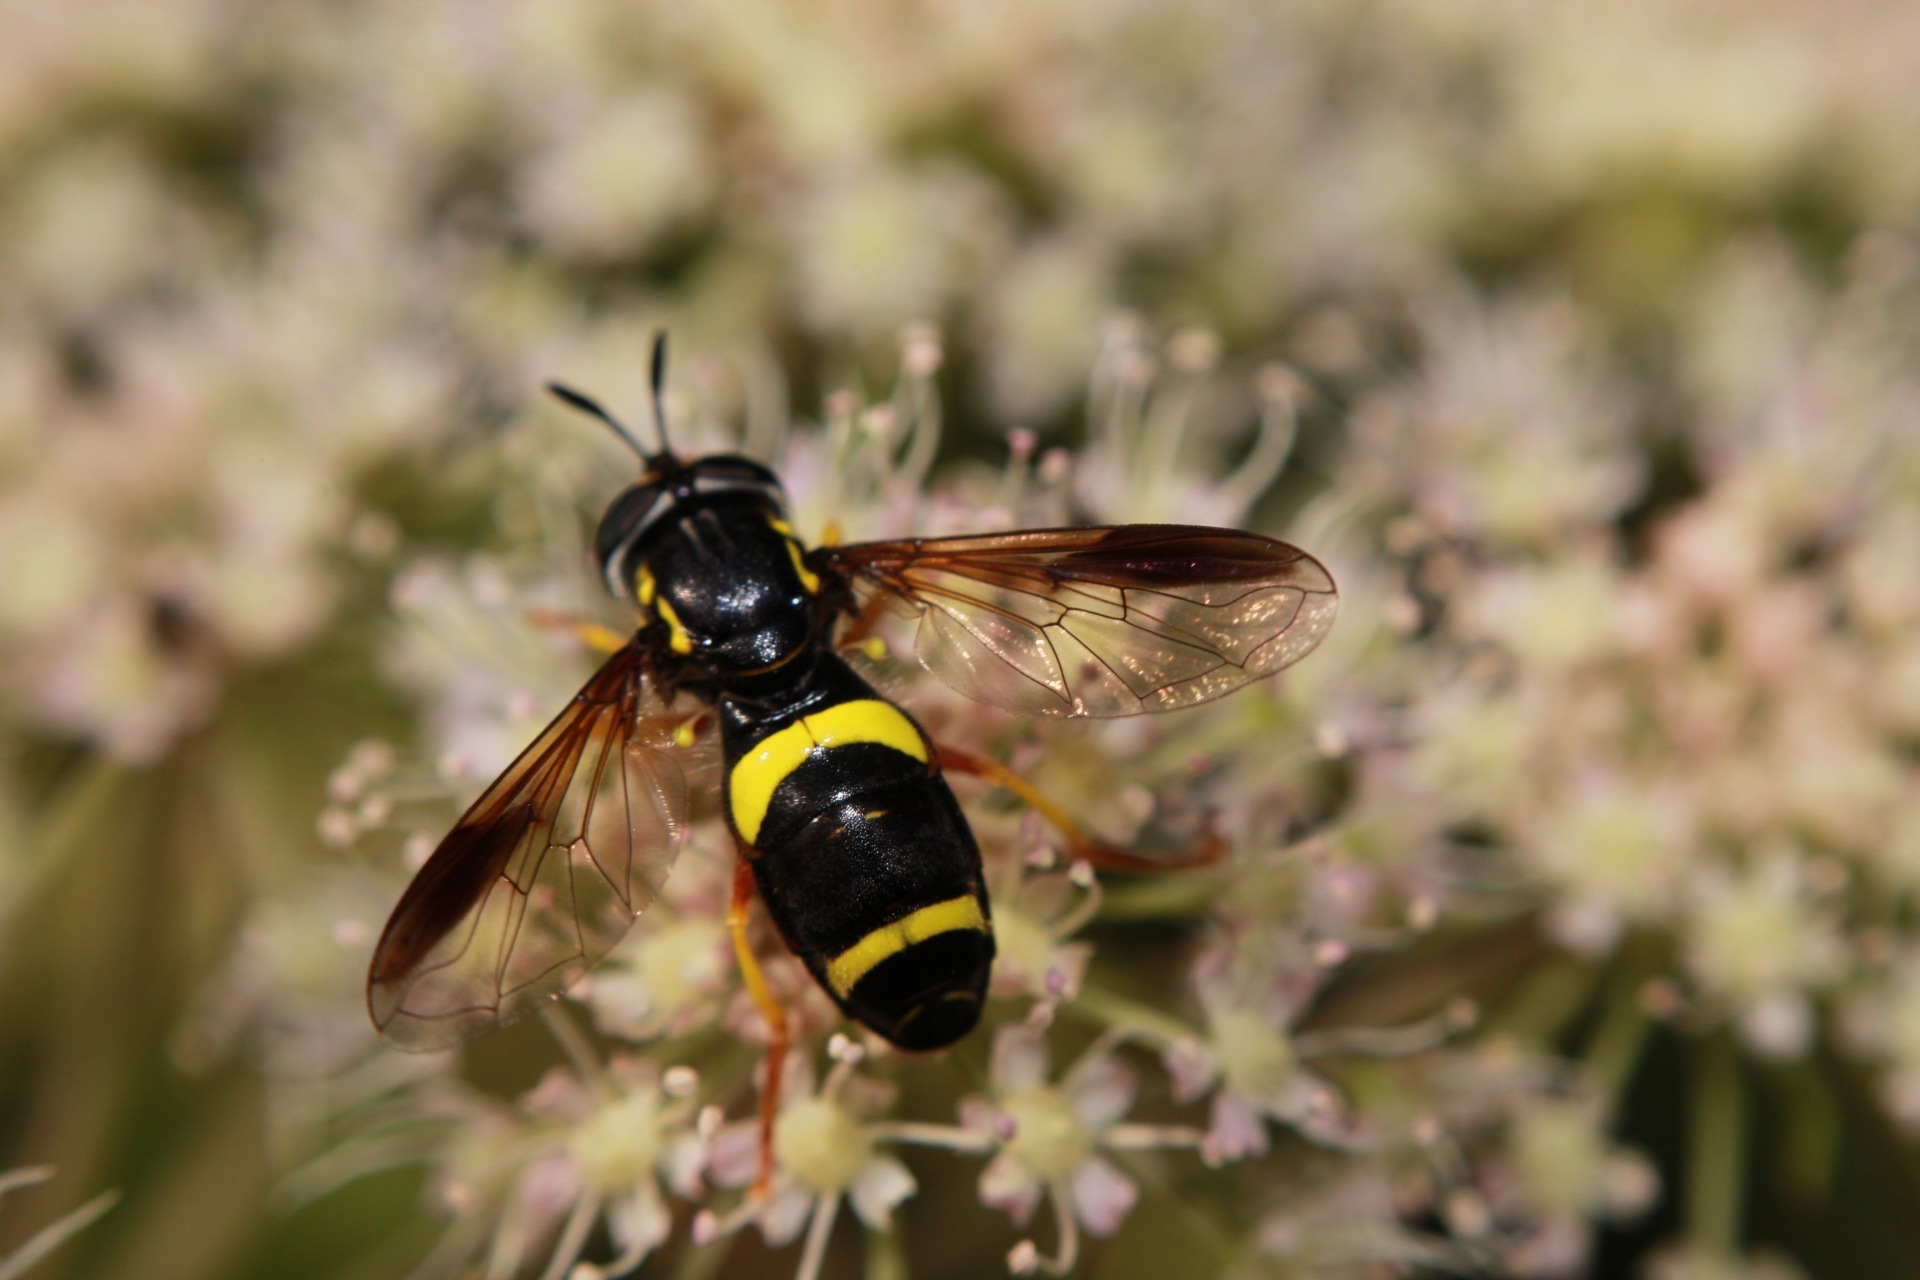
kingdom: Animalia
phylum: Arthropoda
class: Insecta
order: Diptera
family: Syrphidae
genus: Chrysotoxum
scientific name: Chrysotoxum bicincta
